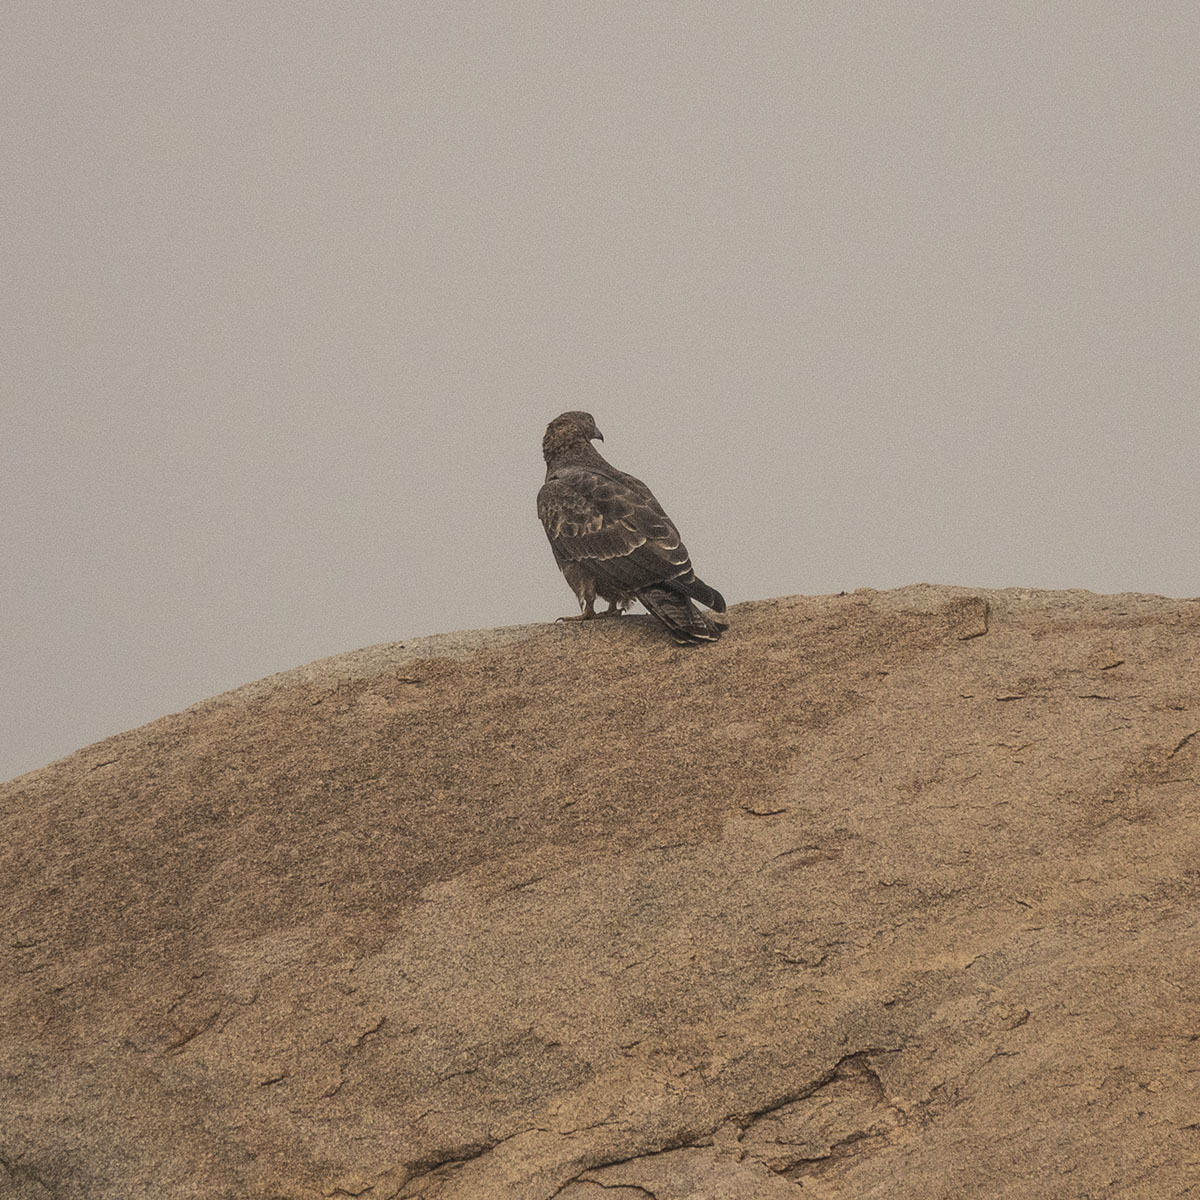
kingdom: Animalia
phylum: Chordata
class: Aves
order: Accipitriformes
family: Accipitridae
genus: Pernis
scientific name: Pernis ptilorhynchus
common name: Crested honey buzzard
